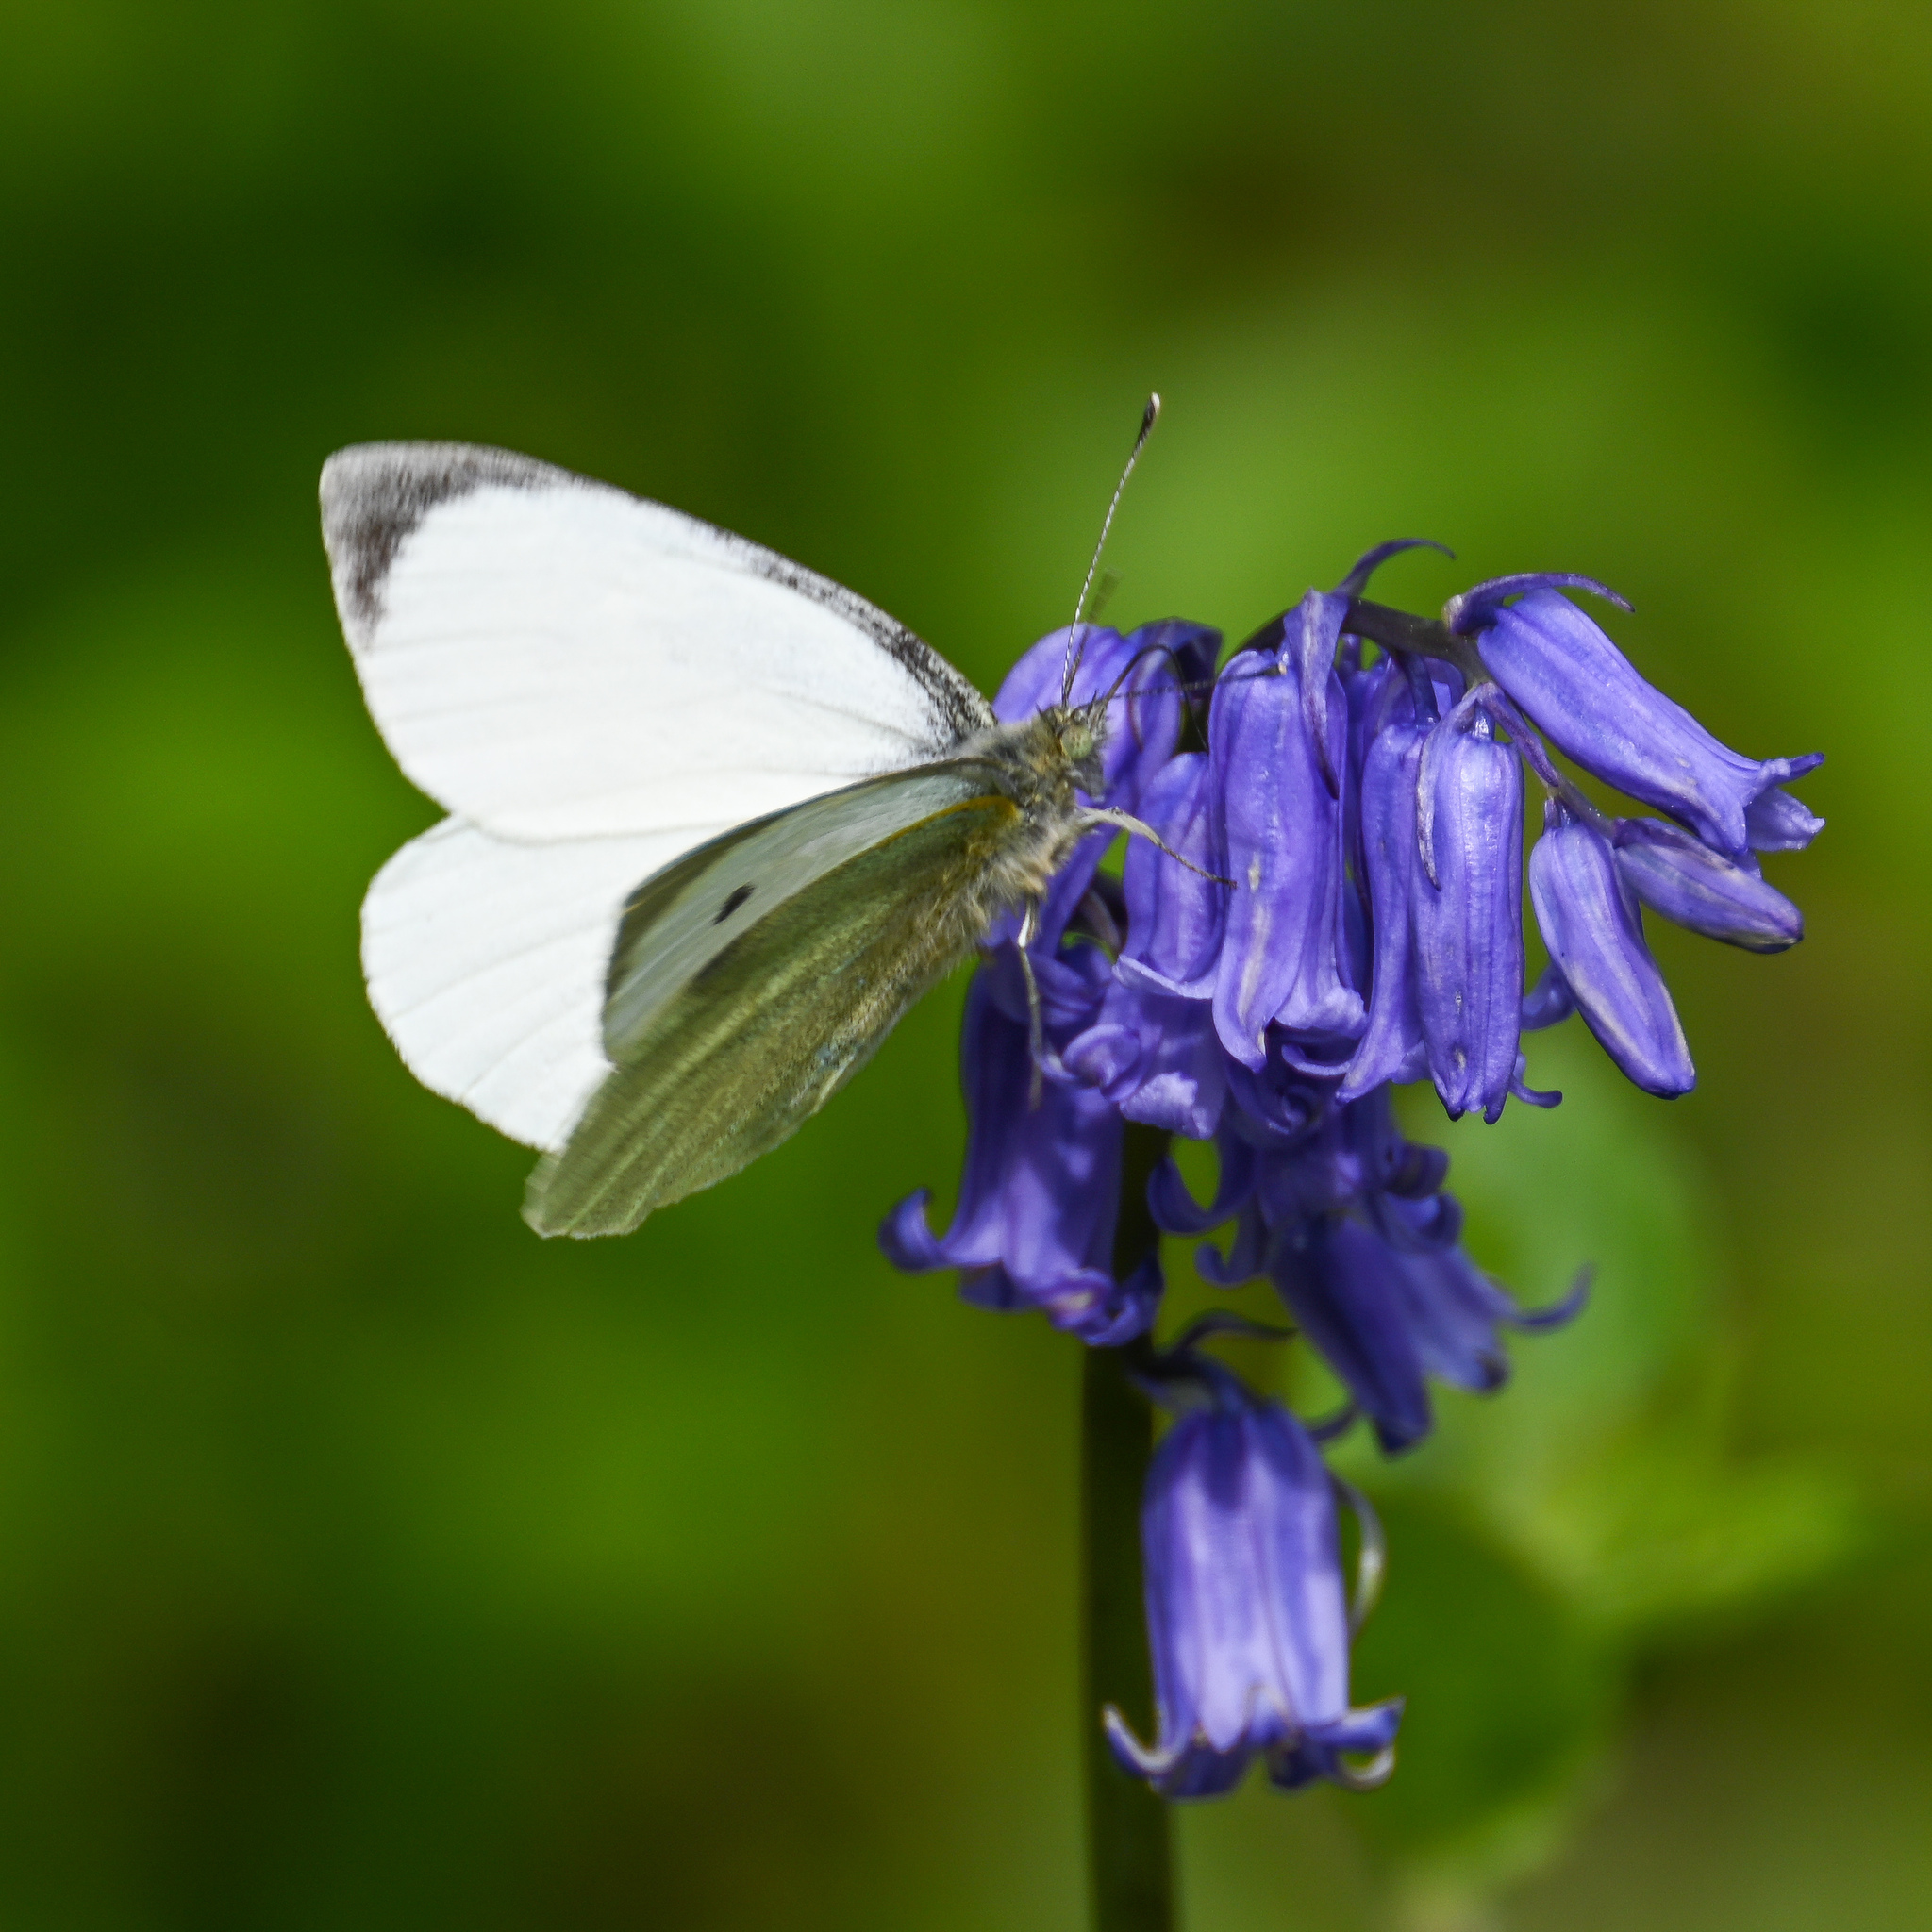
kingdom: Animalia
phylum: Arthropoda
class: Insecta
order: Lepidoptera
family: Pieridae
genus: Pieris
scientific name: Pieris brassicae
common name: Large white
